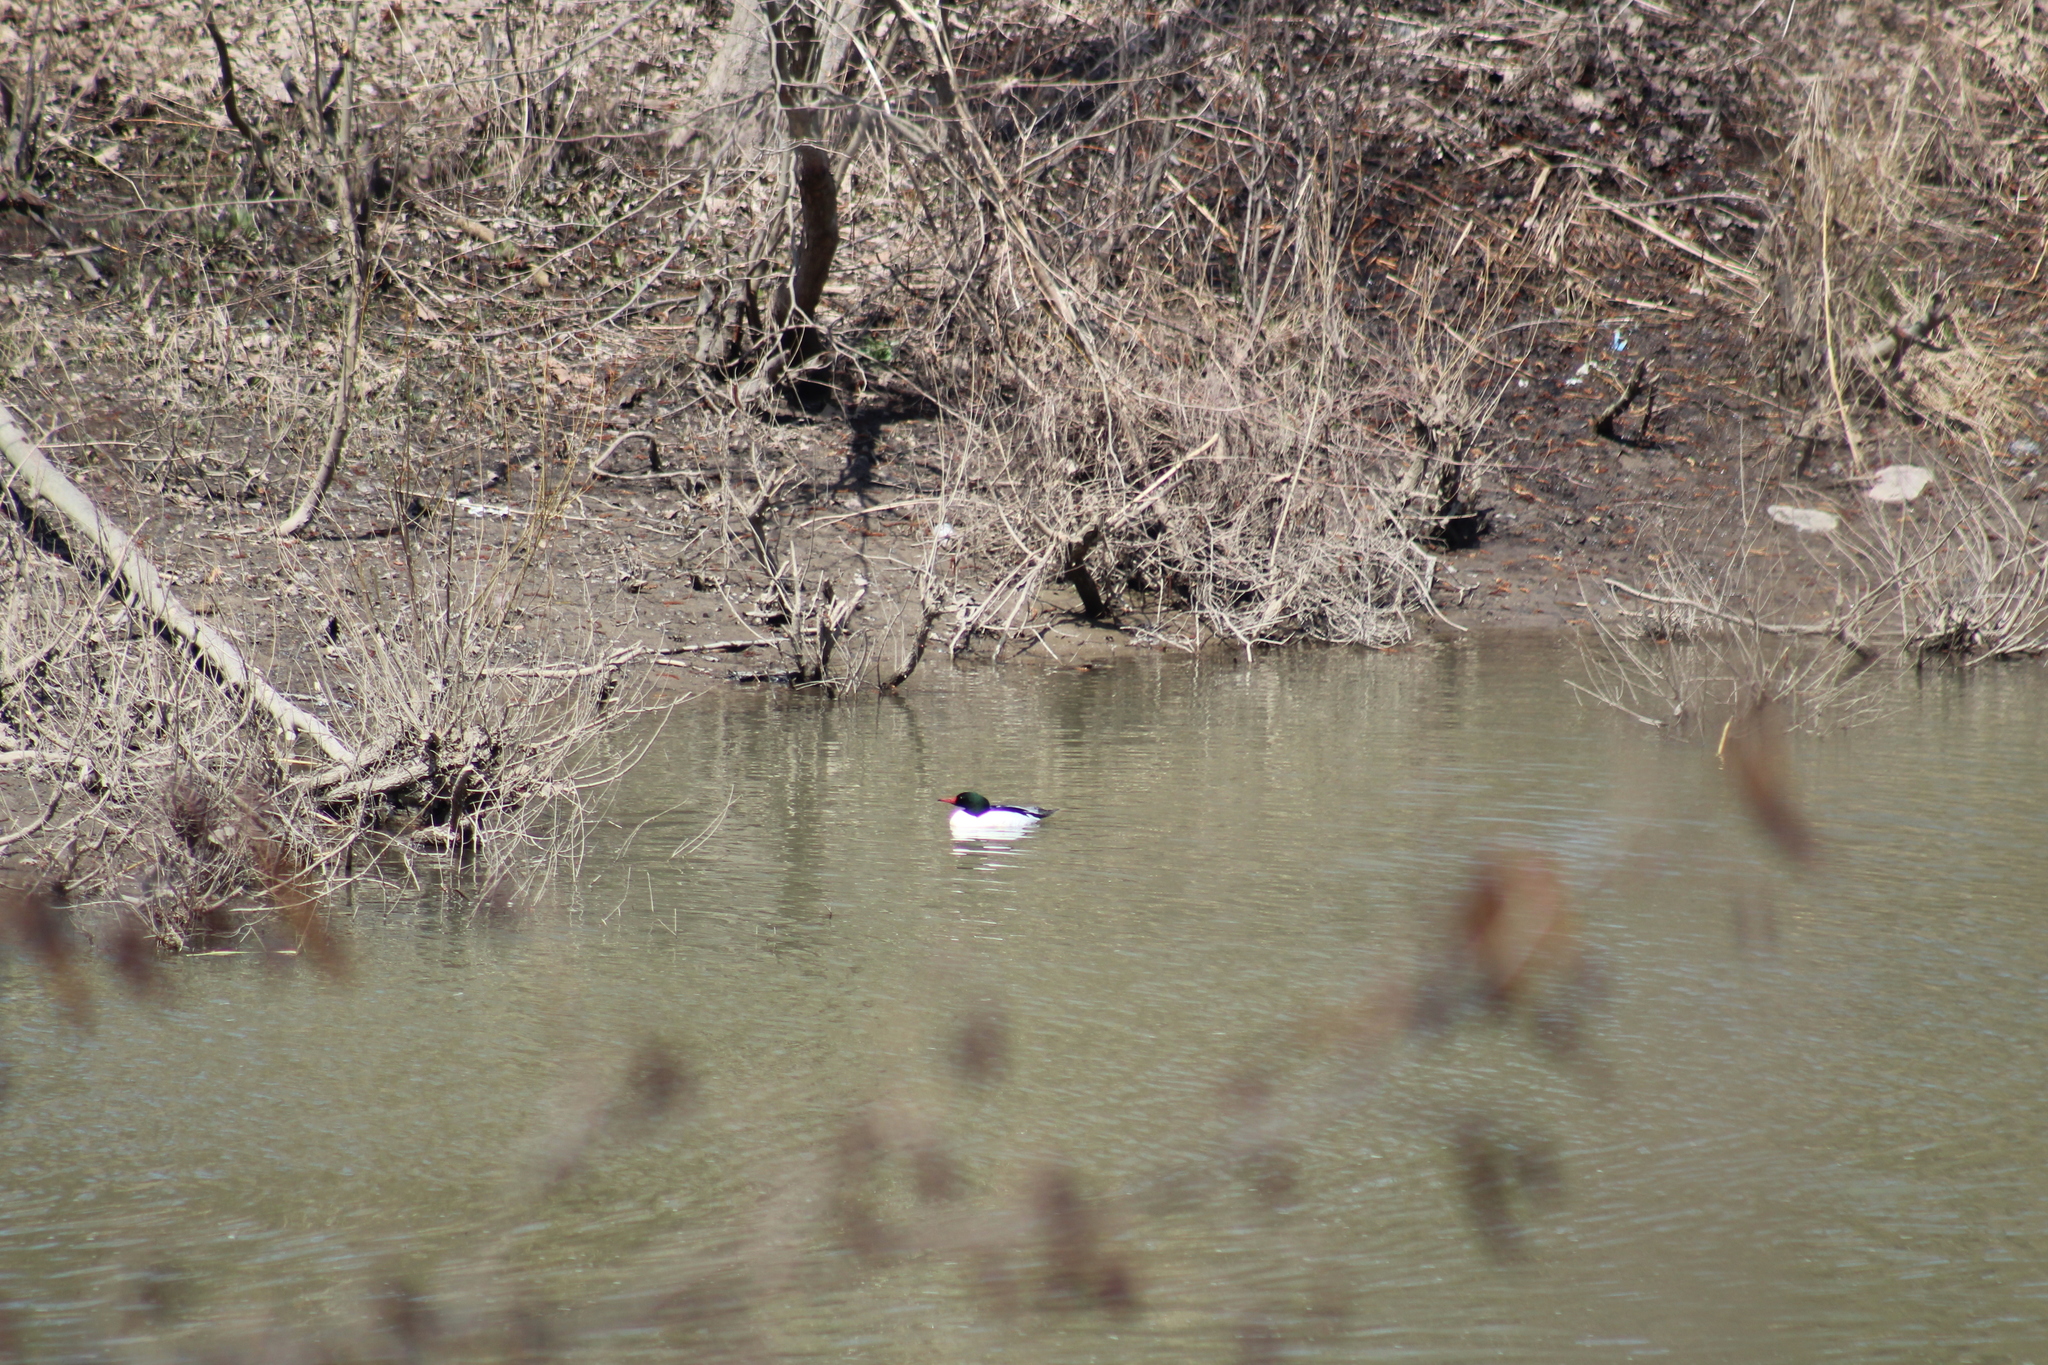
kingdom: Animalia
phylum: Chordata
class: Aves
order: Anseriformes
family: Anatidae
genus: Mergus
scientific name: Mergus merganser
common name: Common merganser
